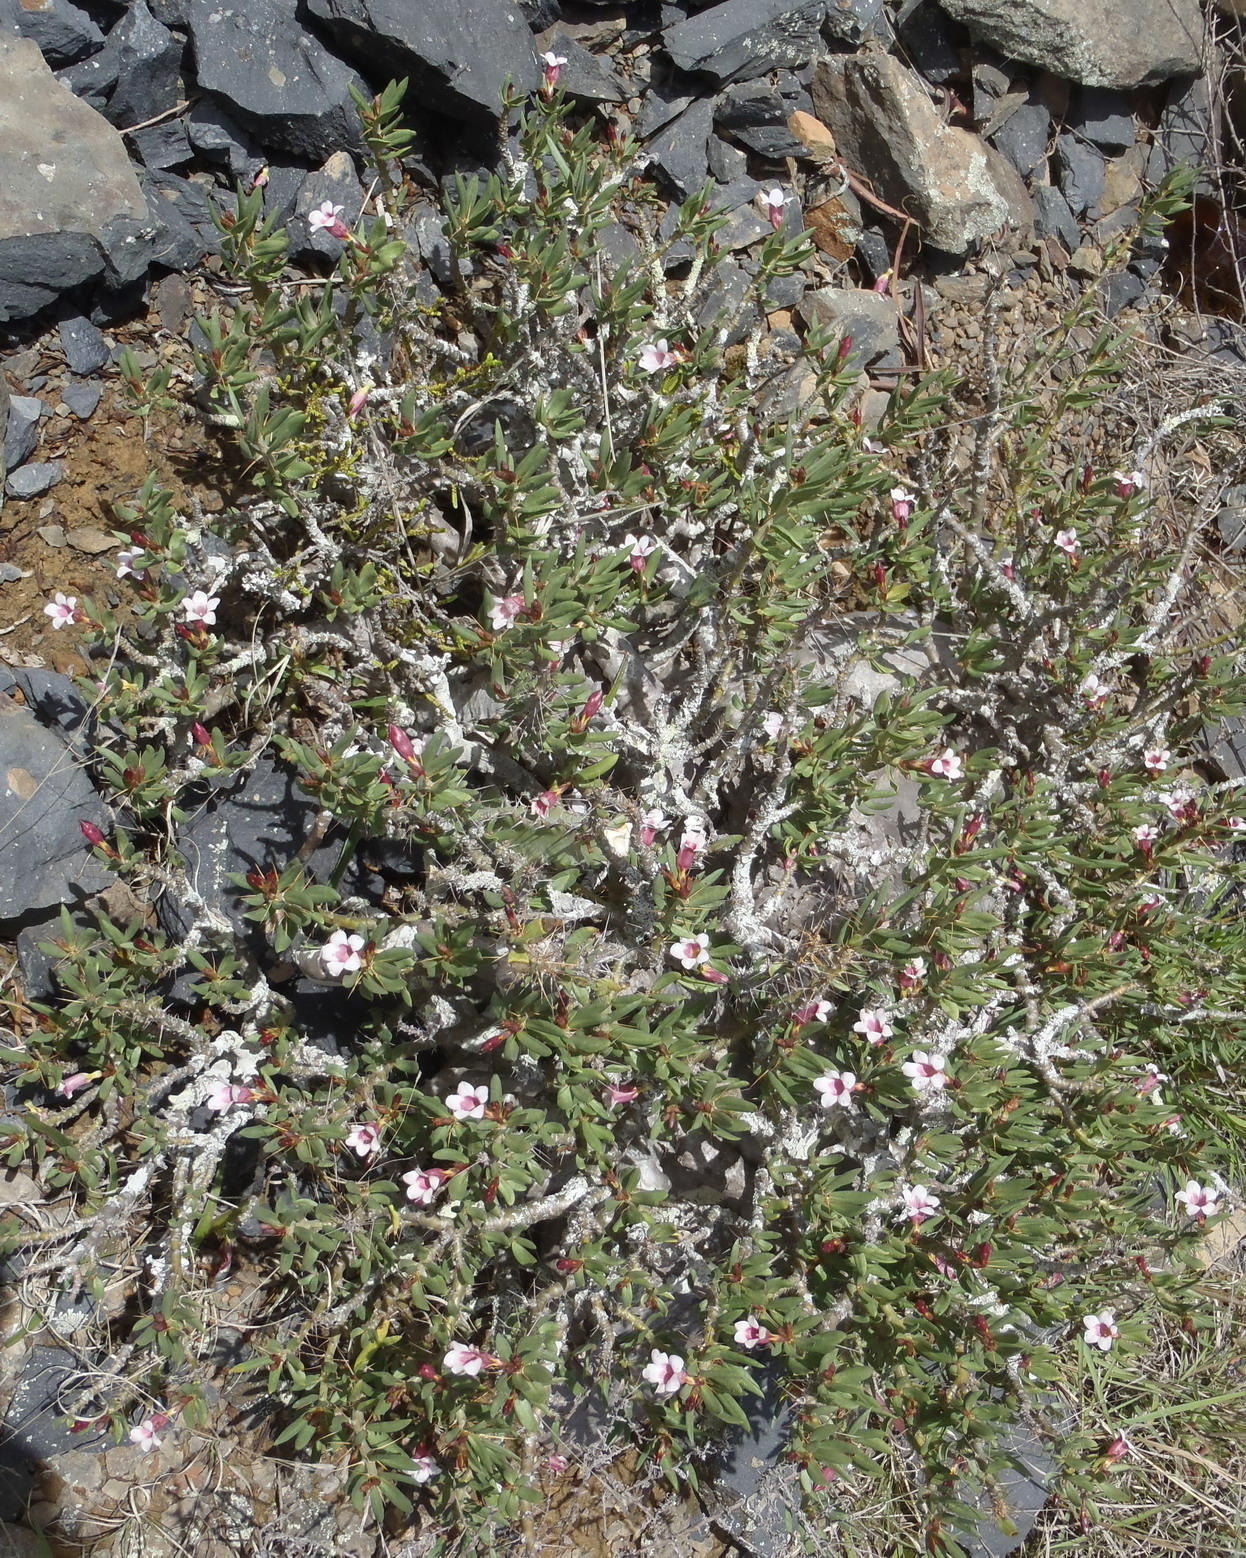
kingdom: Plantae
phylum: Tracheophyta
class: Magnoliopsida
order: Gentianales
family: Apocynaceae
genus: Pachypodium
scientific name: Pachypodium bispinosum
